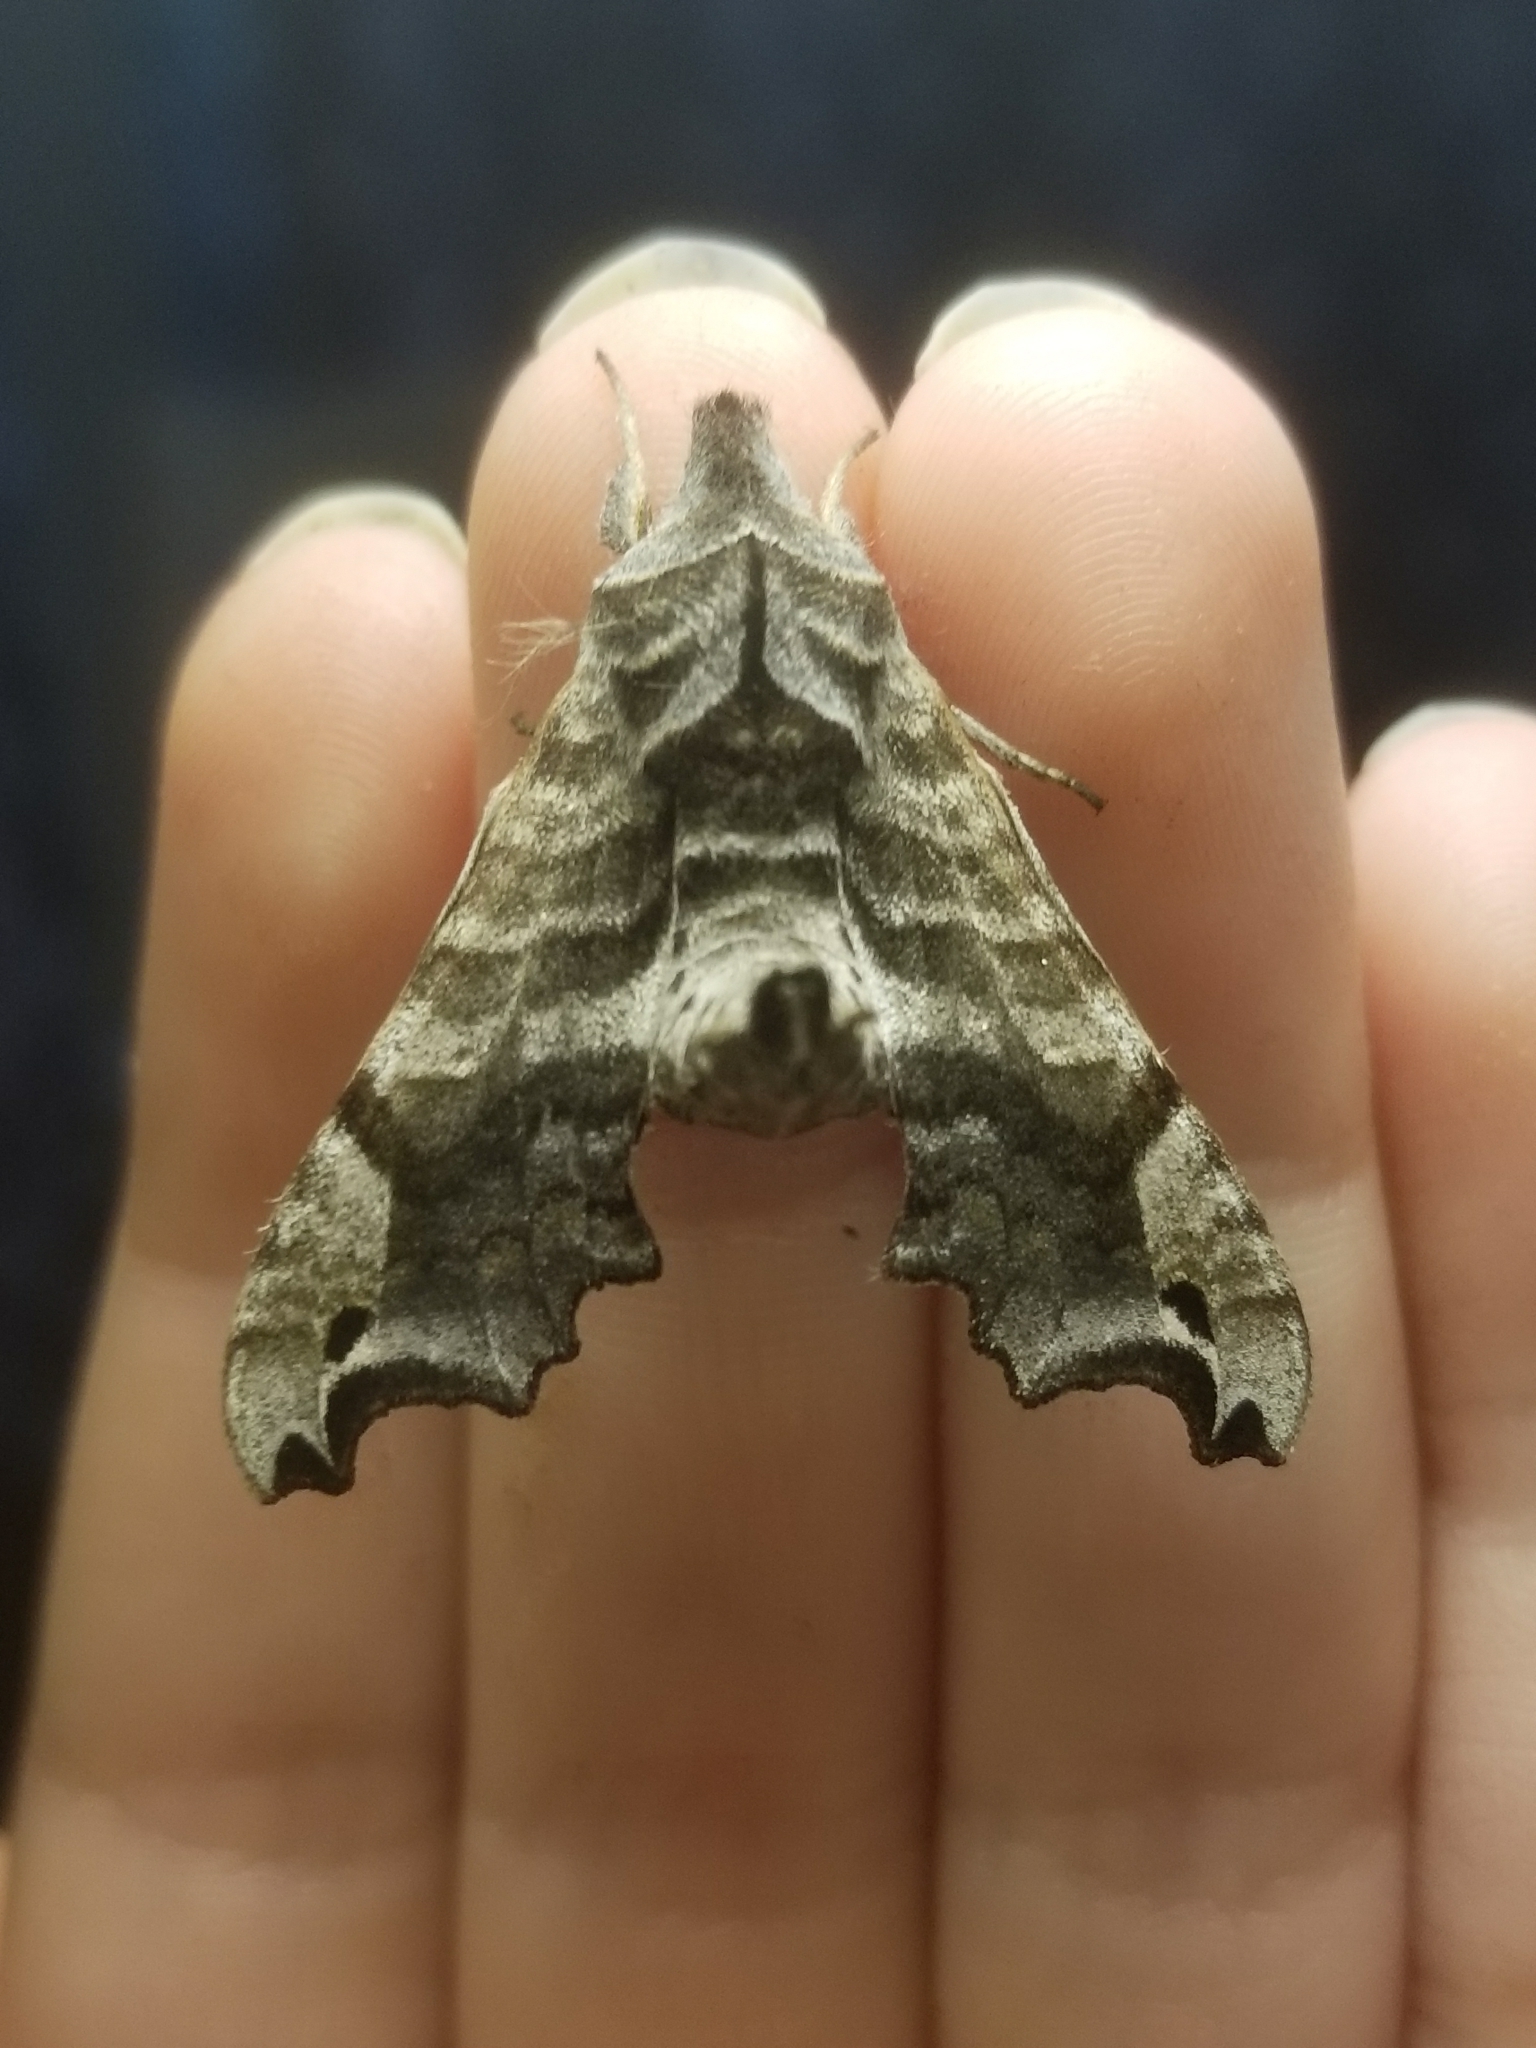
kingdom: Animalia
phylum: Arthropoda
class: Insecta
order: Lepidoptera
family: Sphingidae
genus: Deidamia
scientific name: Deidamia inscriptum
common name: Lettered sphinx
